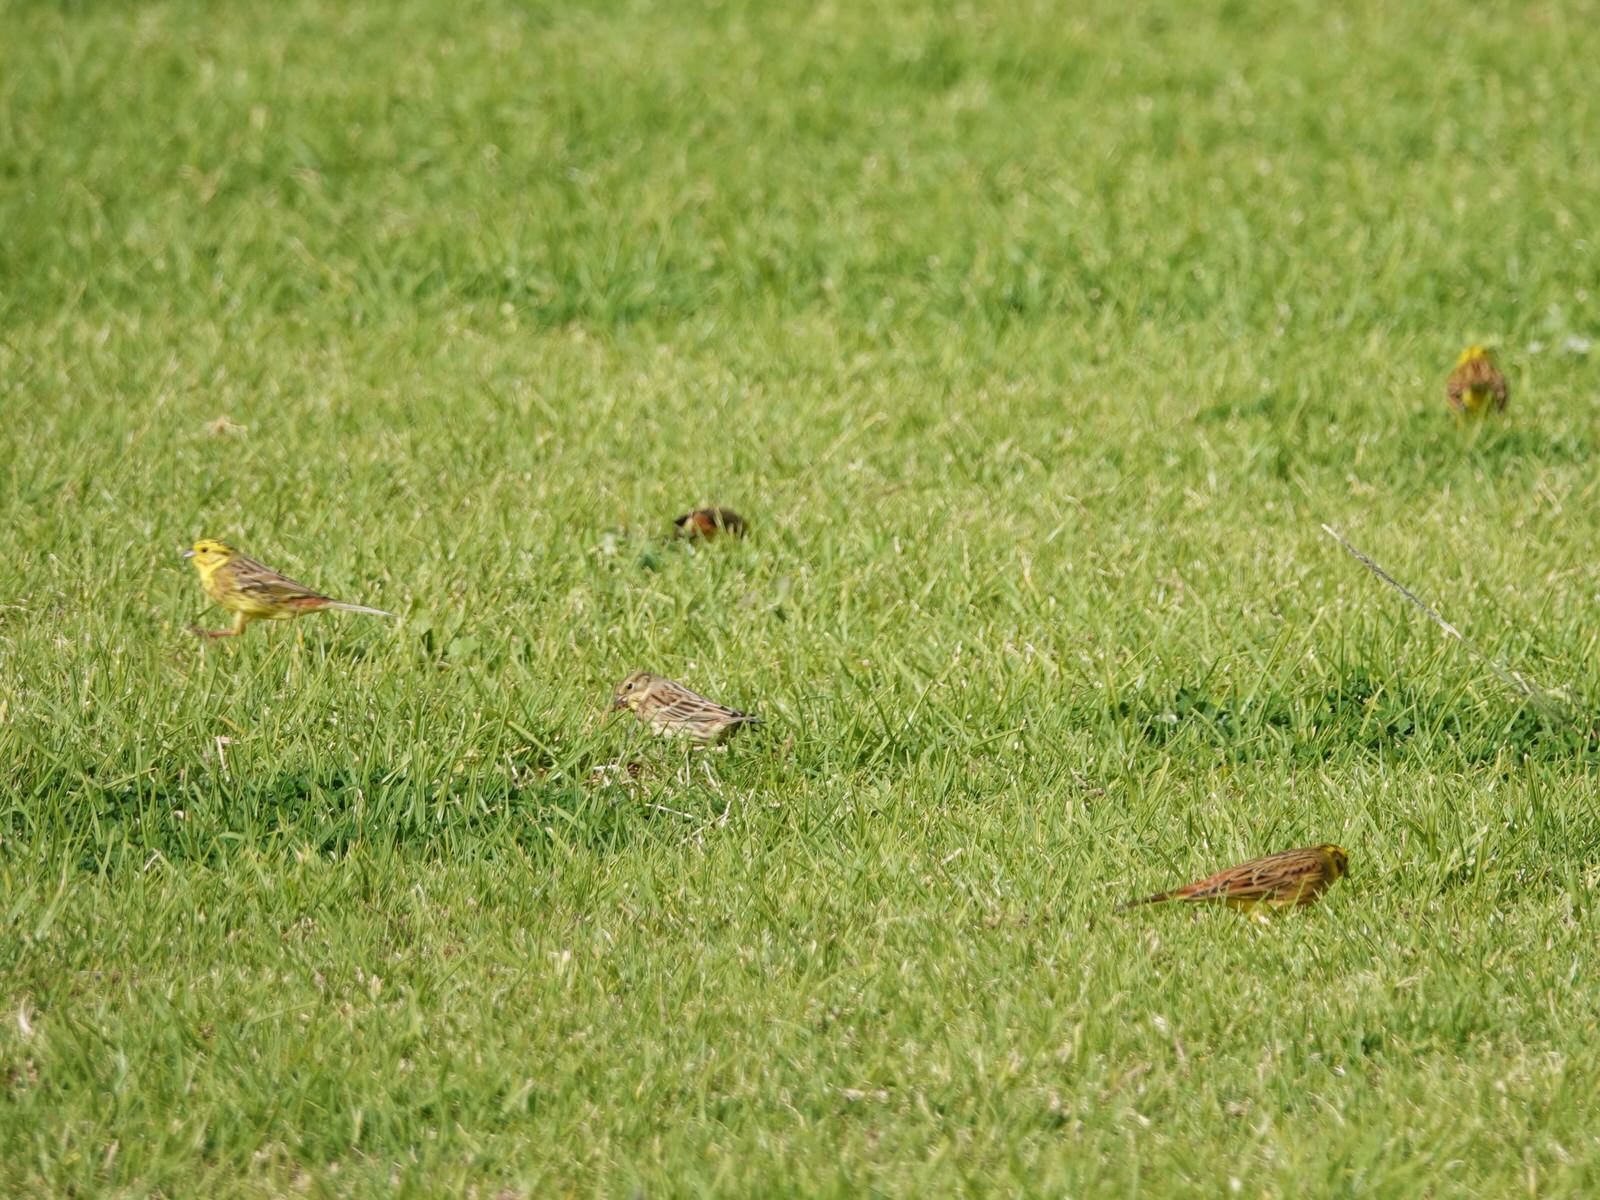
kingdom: Animalia
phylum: Chordata
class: Aves
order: Passeriformes
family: Emberizidae
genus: Emberiza
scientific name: Emberiza citrinella
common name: Yellowhammer
